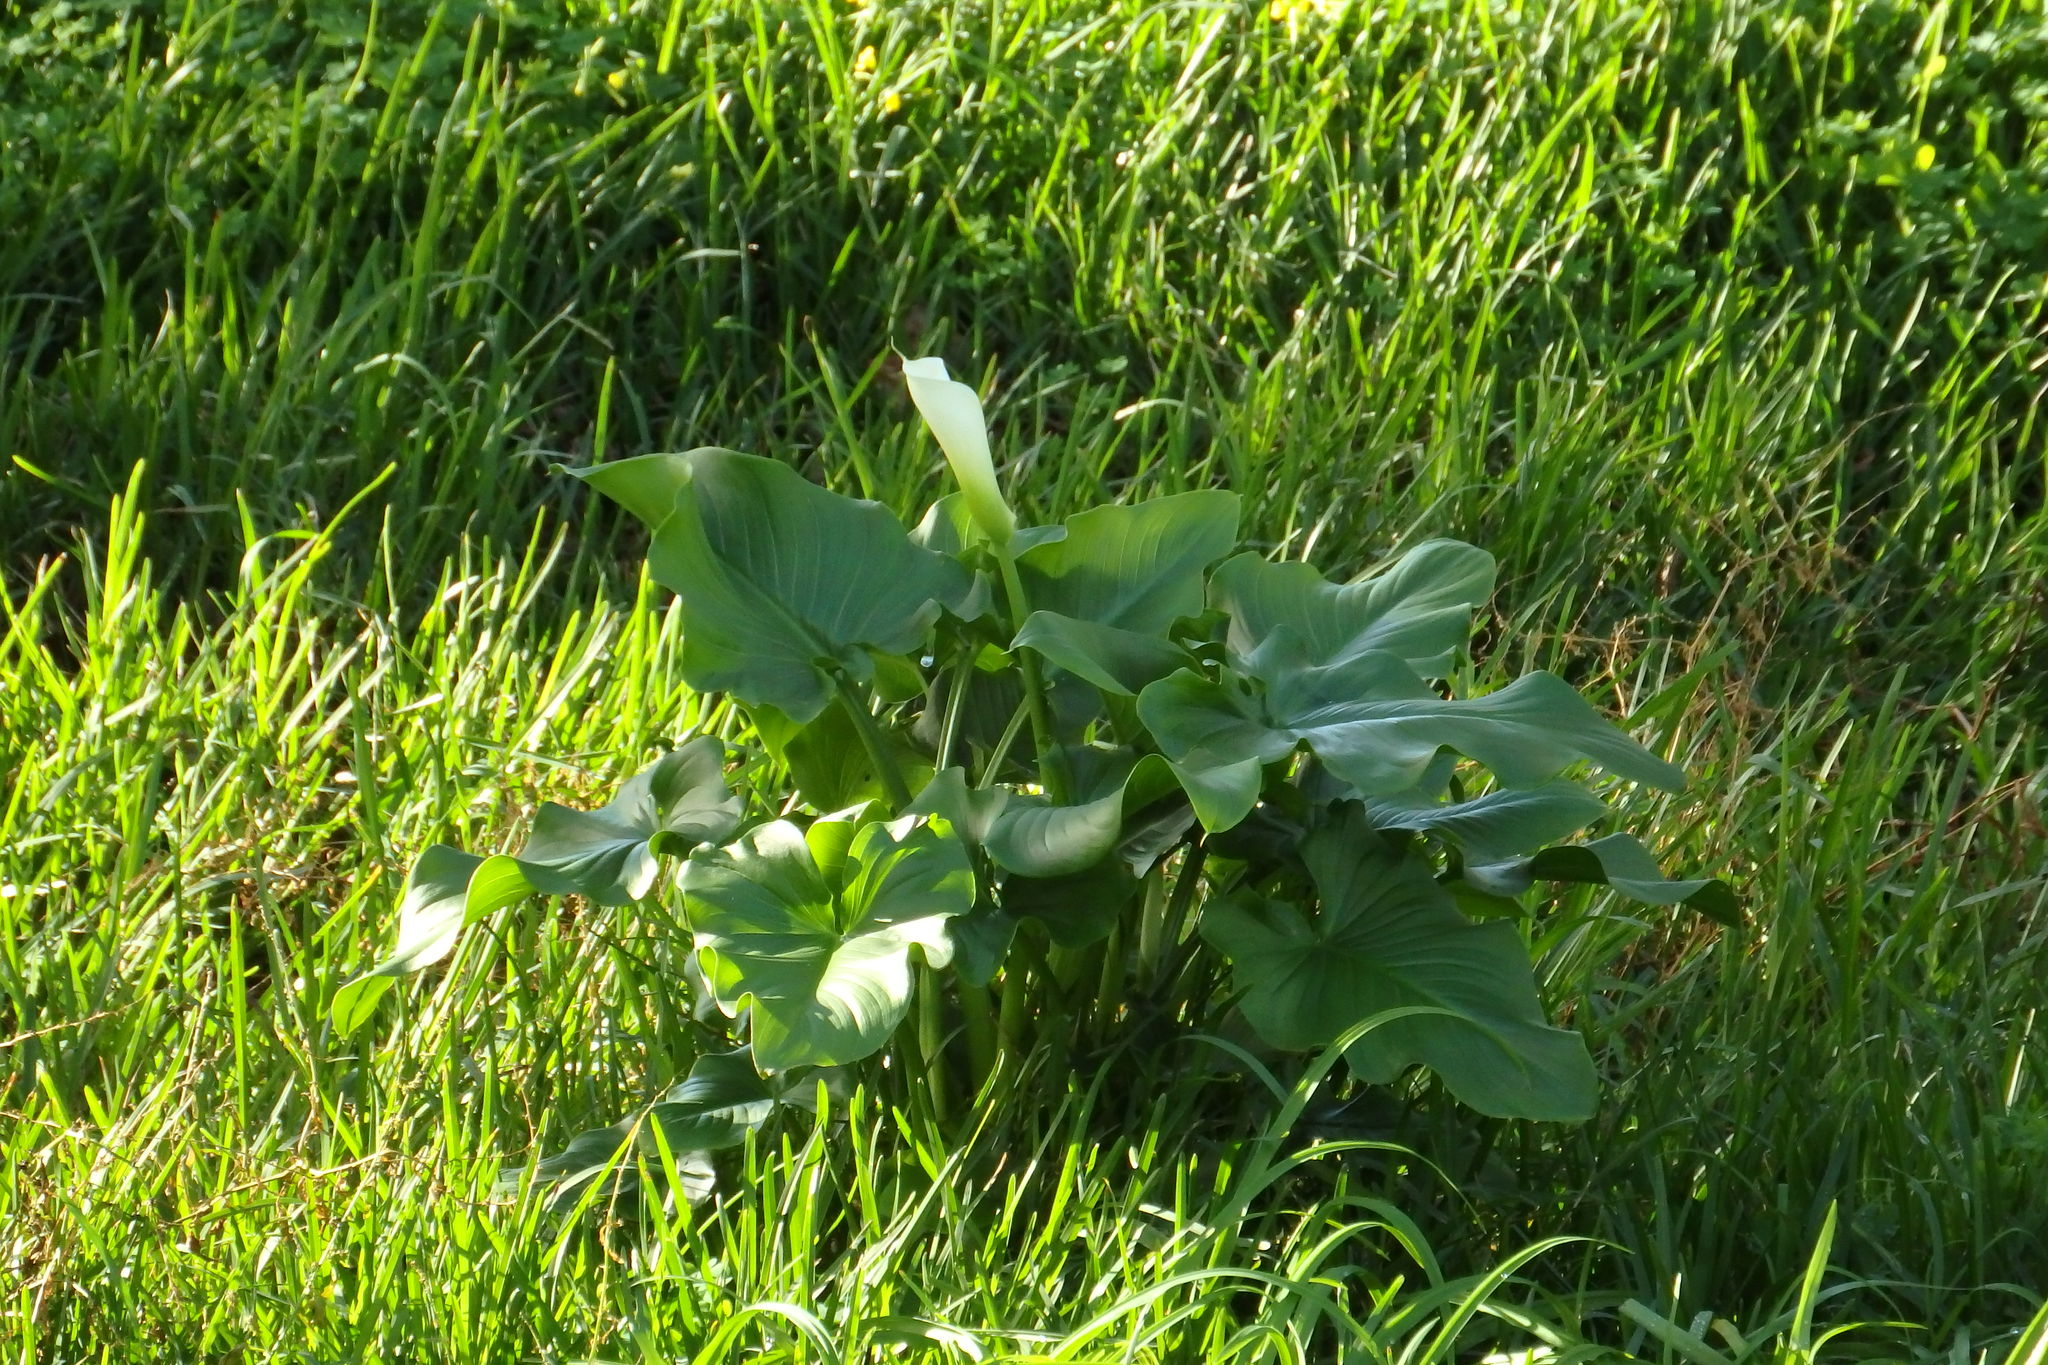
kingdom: Plantae
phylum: Tracheophyta
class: Liliopsida
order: Alismatales
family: Araceae
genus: Zantedeschia
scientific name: Zantedeschia aethiopica
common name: Altar-lily
